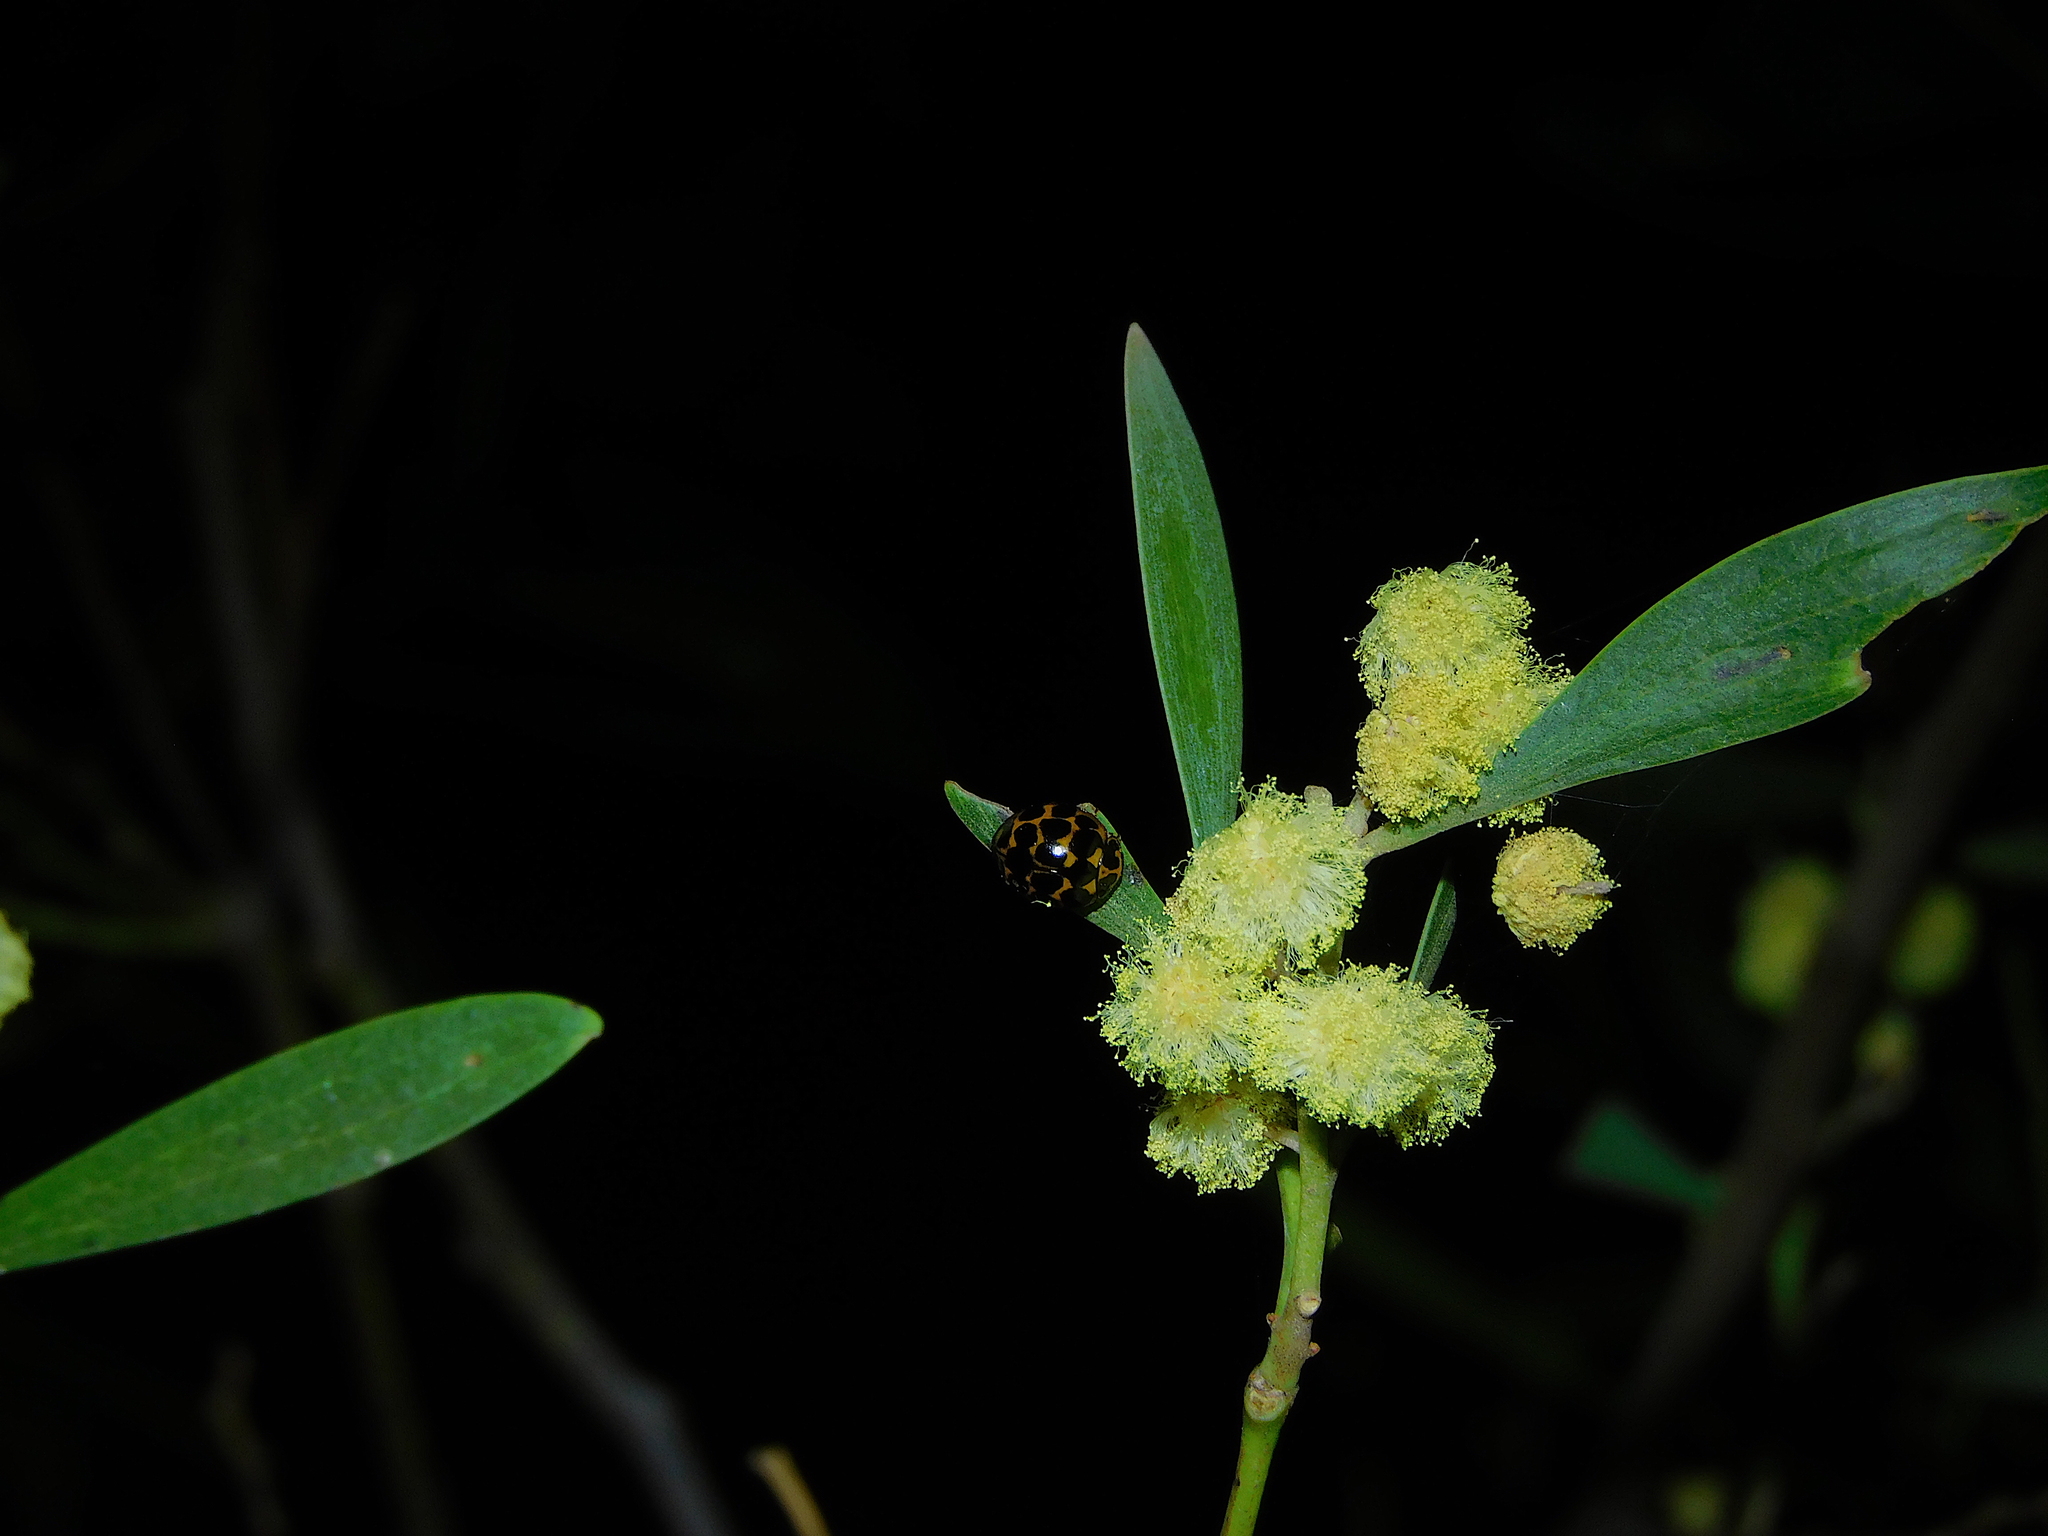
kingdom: Animalia
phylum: Arthropoda
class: Insecta
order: Coleoptera
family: Coccinellidae
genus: Harmonia
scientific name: Harmonia conformis
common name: Common spotted ladybird beetle
